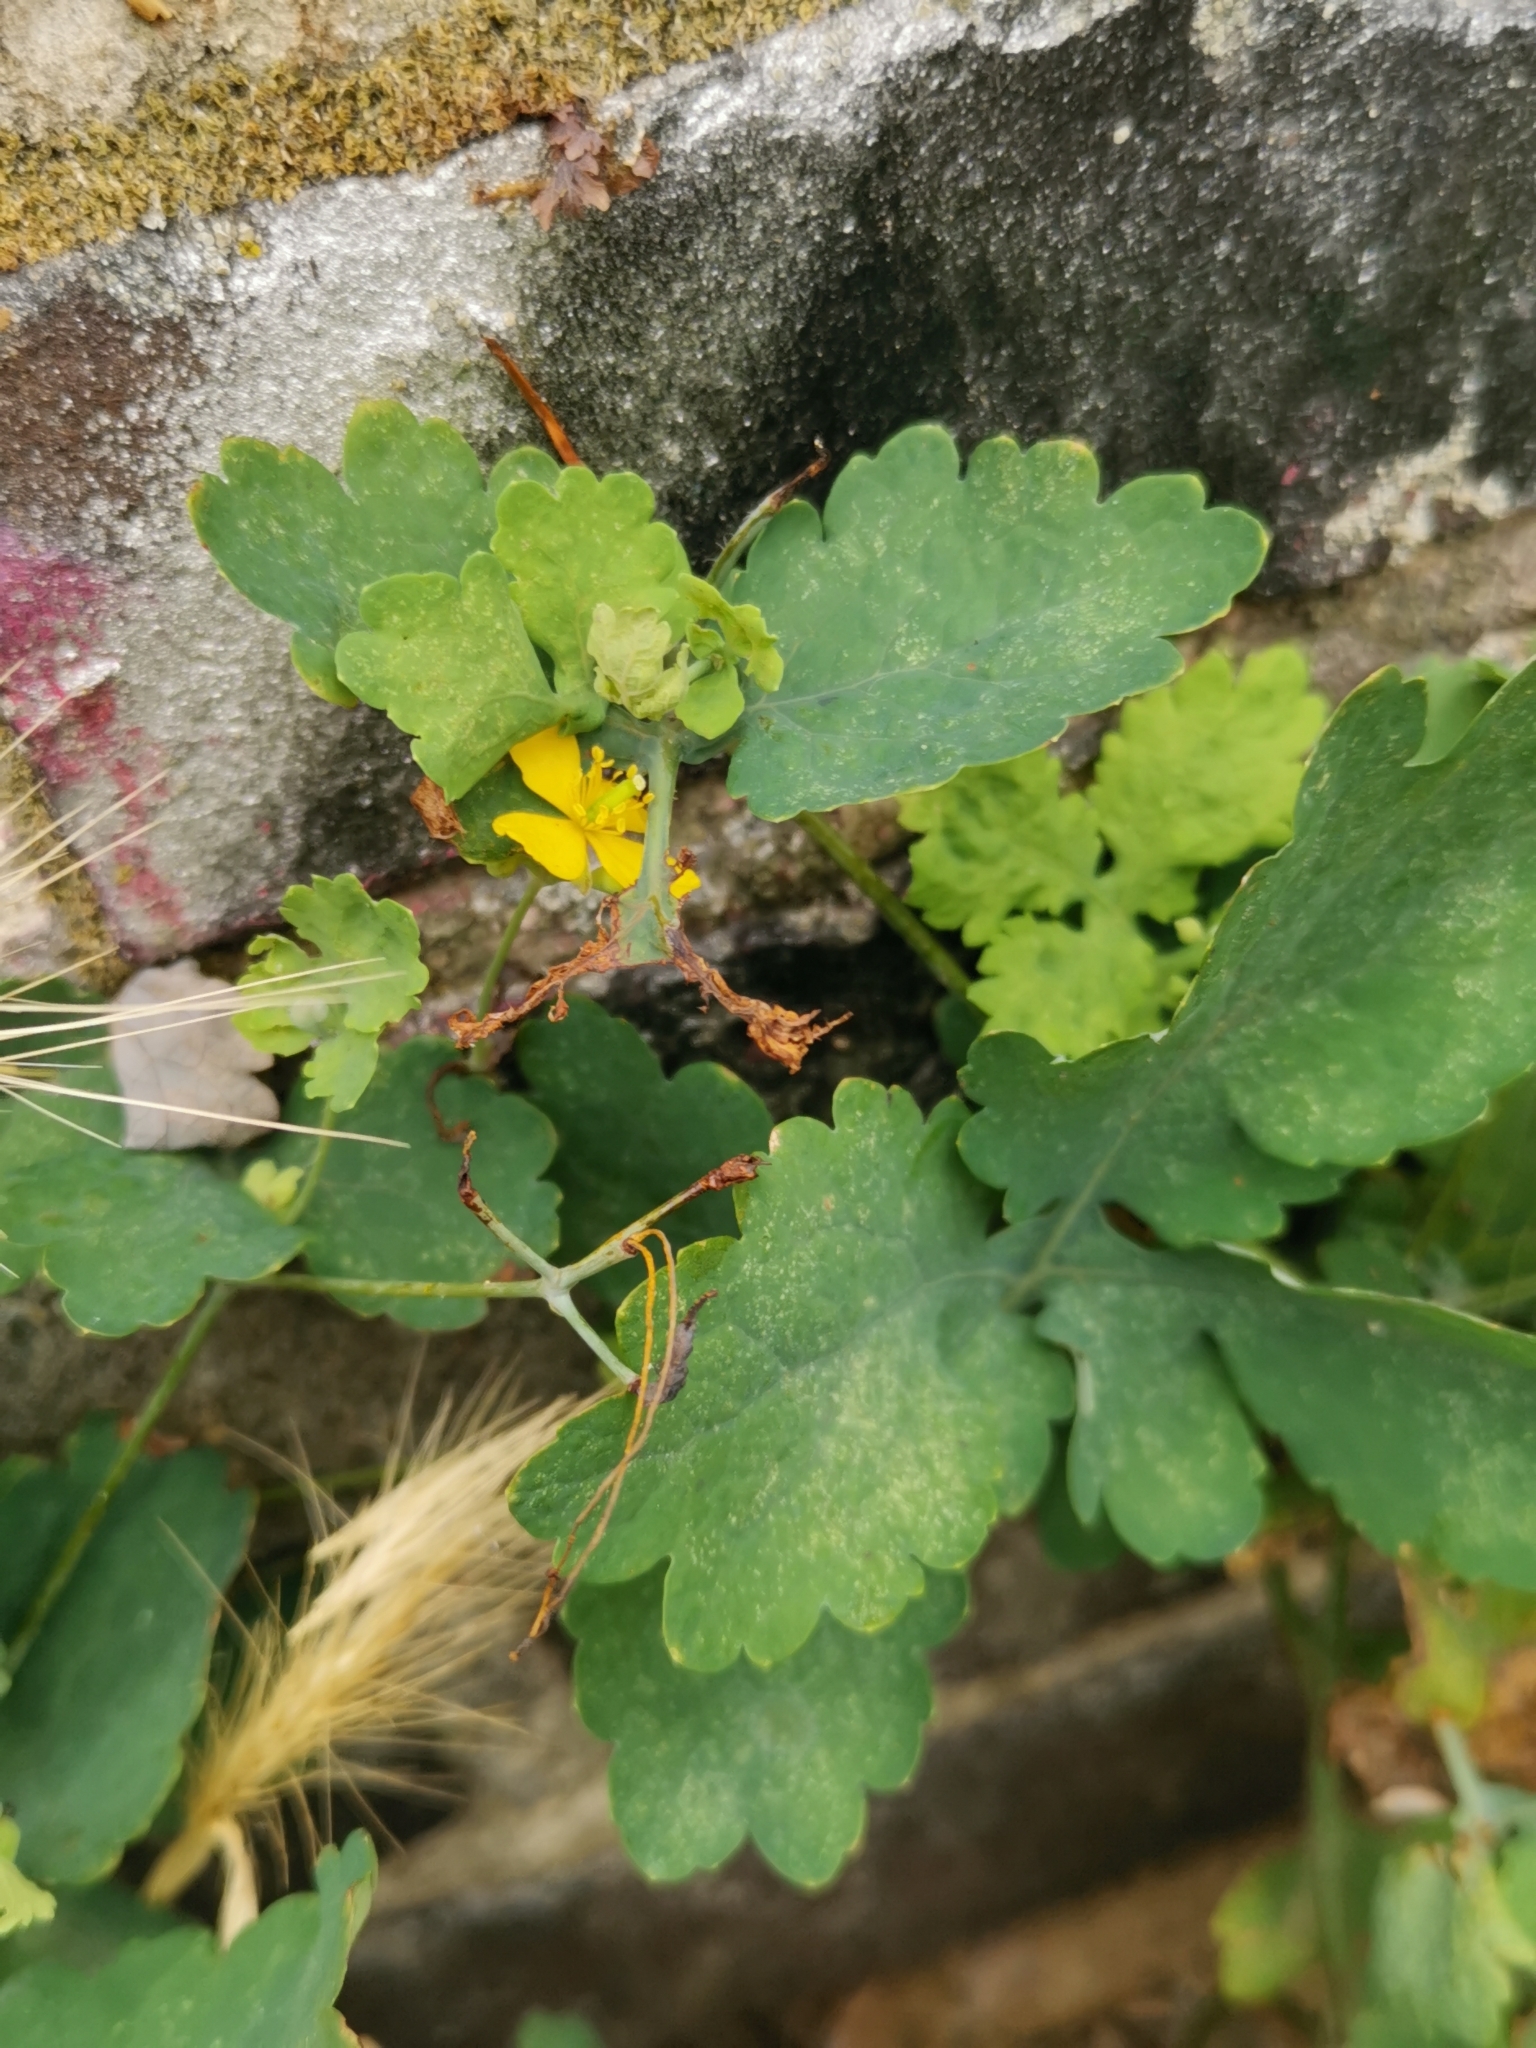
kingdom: Plantae
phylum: Tracheophyta
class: Magnoliopsida
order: Ranunculales
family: Papaveraceae
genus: Chelidonium
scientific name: Chelidonium majus
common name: Greater celandine
